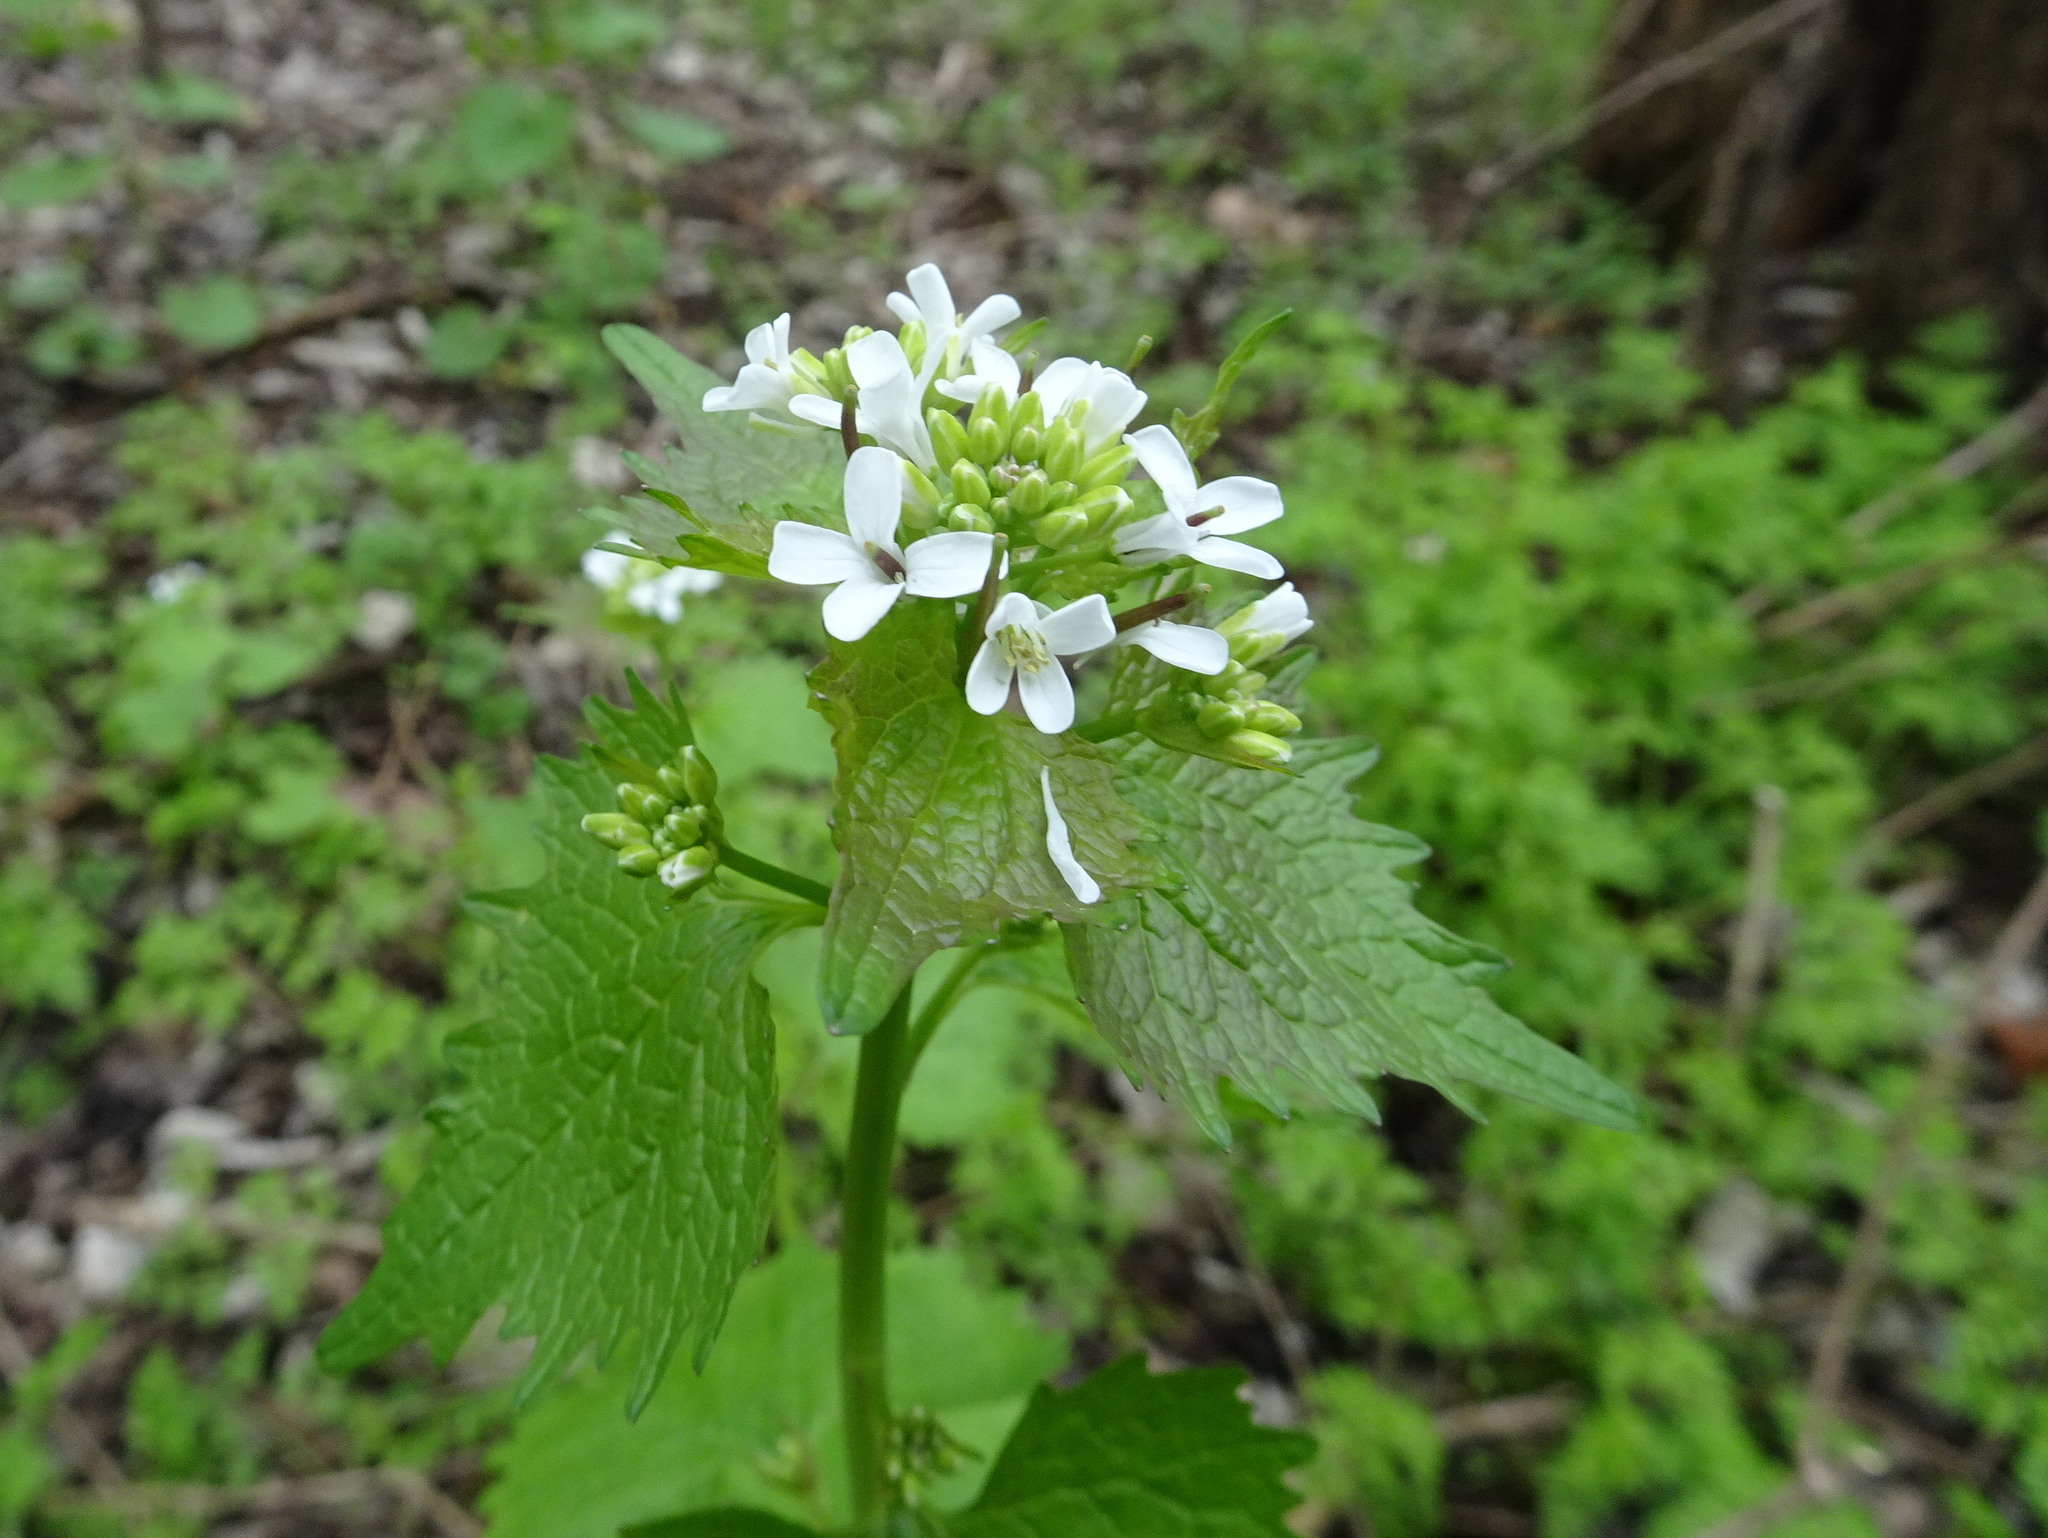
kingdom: Plantae
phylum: Tracheophyta
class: Magnoliopsida
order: Brassicales
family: Brassicaceae
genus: Alliaria
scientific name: Alliaria petiolata
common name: Garlic mustard
